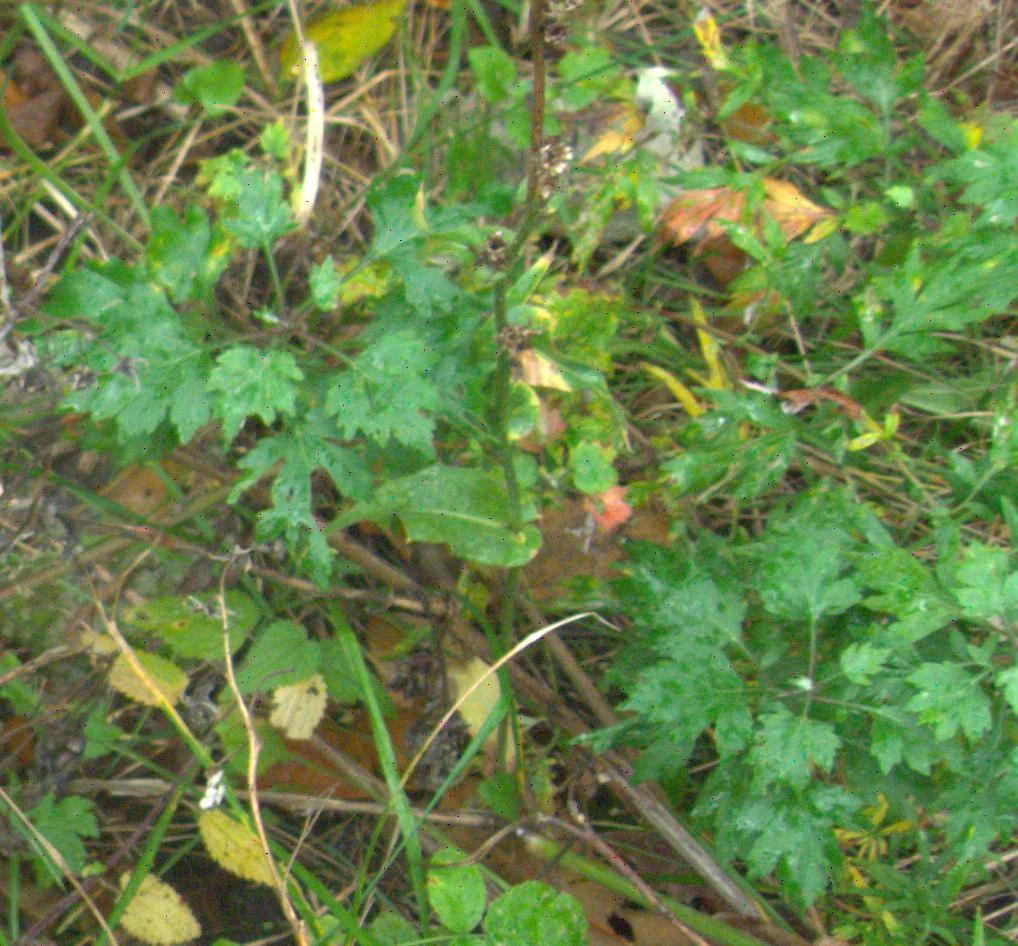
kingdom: Plantae
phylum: Tracheophyta
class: Magnoliopsida
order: Asterales
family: Asteraceae
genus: Artemisia
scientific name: Artemisia vulgaris
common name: Mugwort
